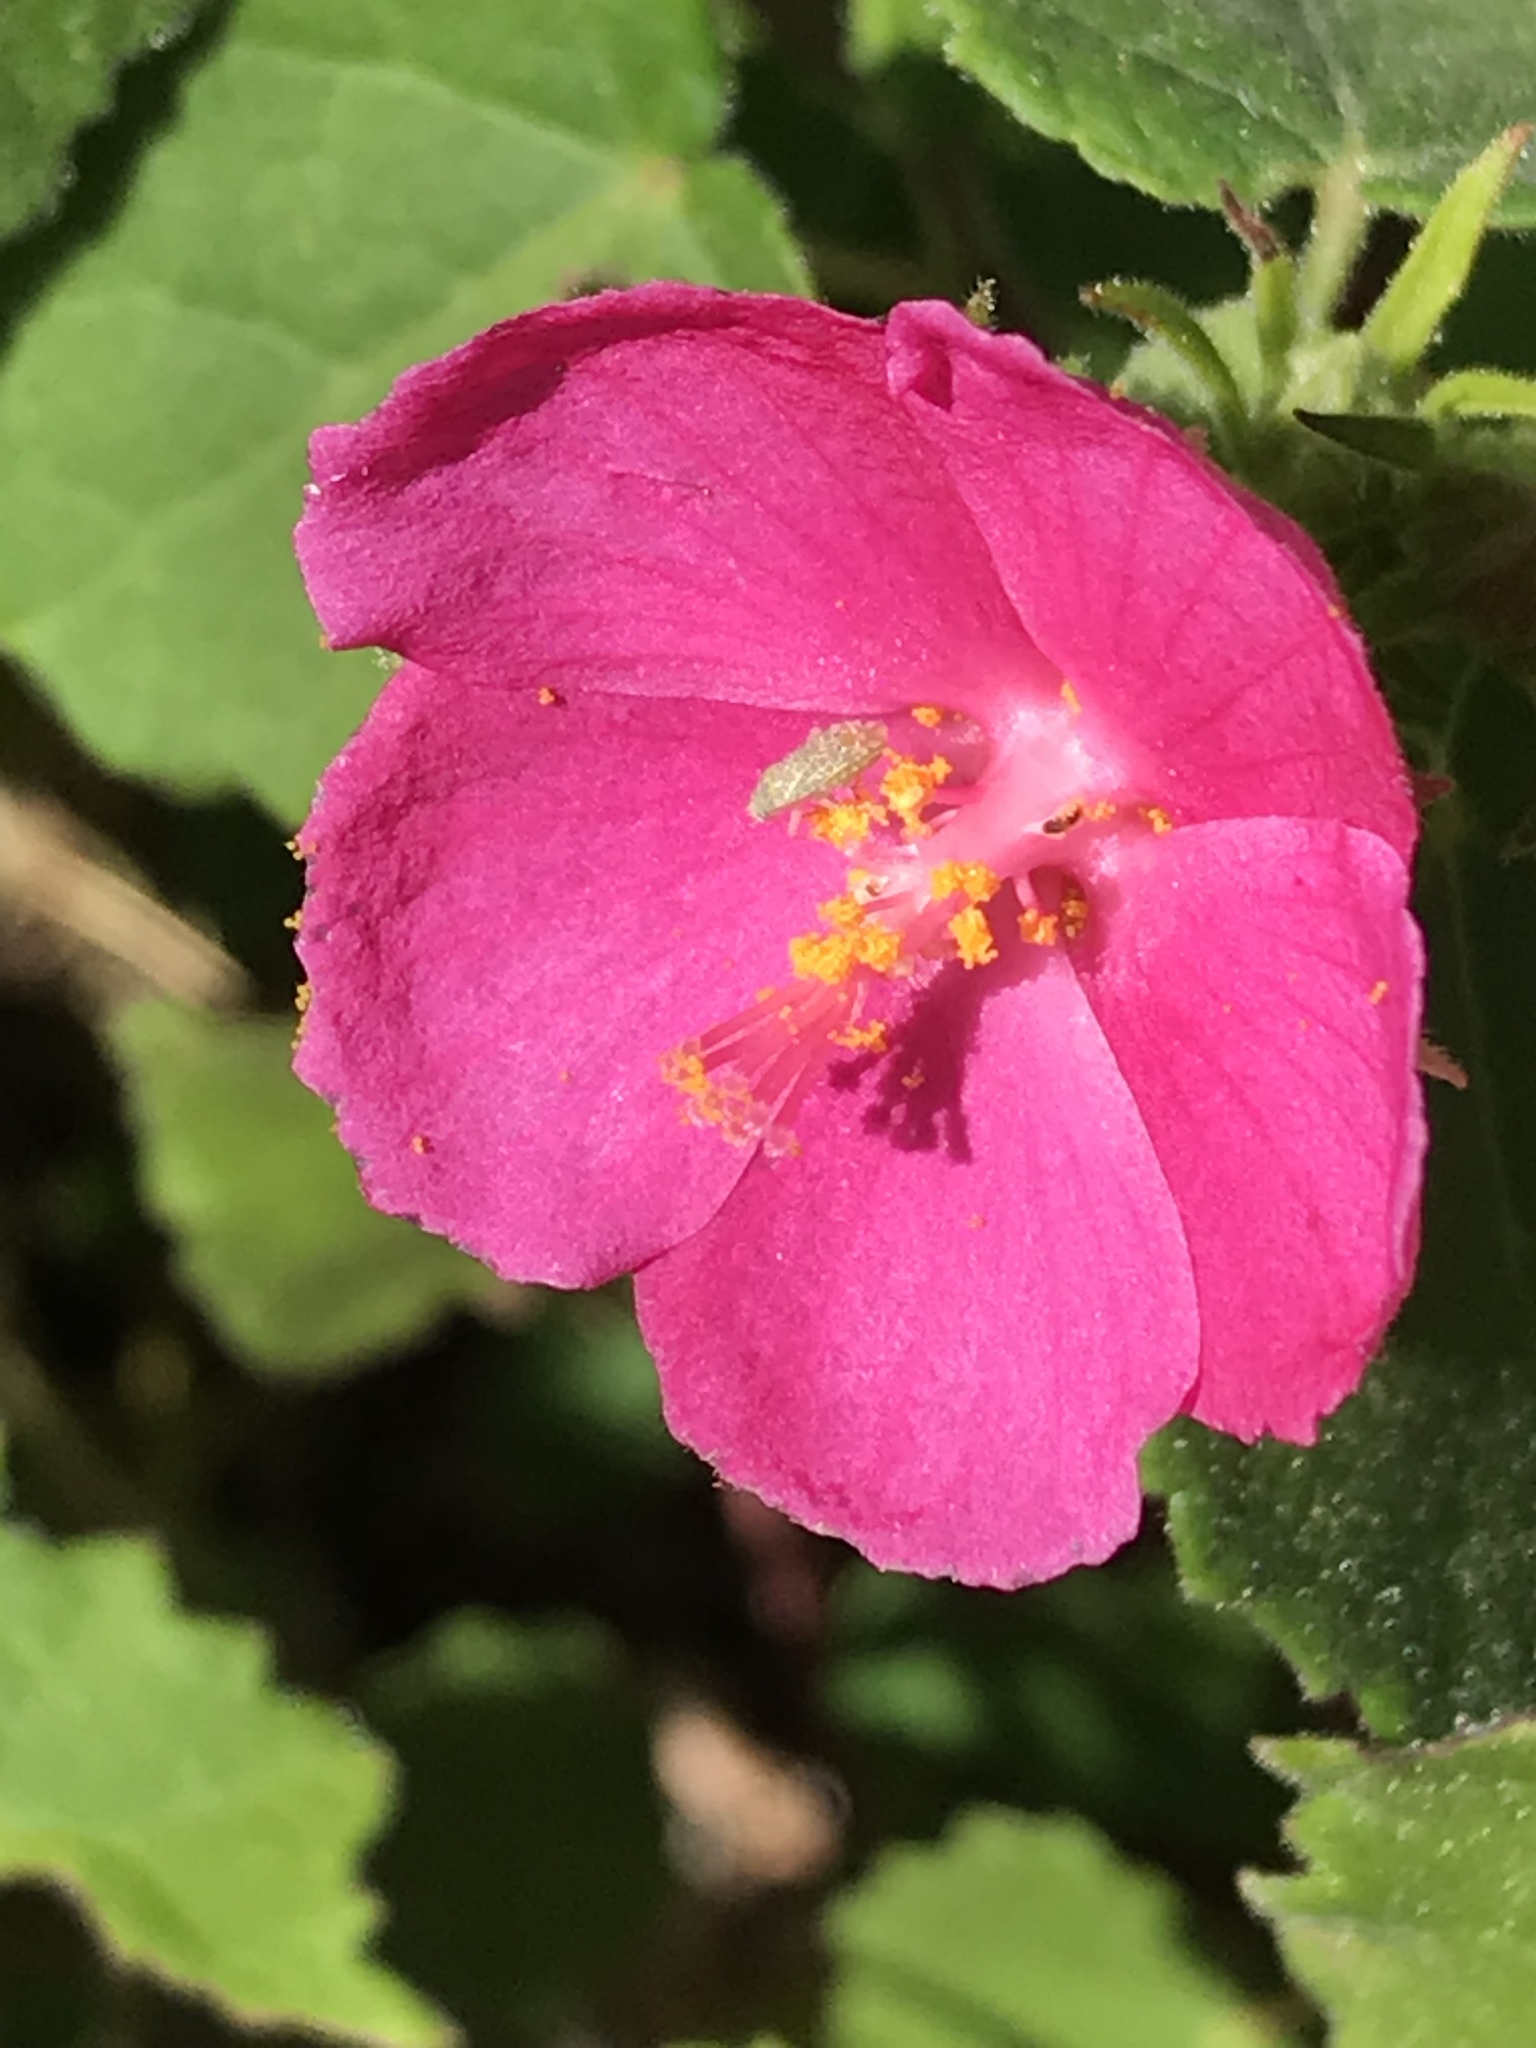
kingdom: Plantae
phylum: Tracheophyta
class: Magnoliopsida
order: Malvales
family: Malvaceae
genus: Pavonia
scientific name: Pavonia lasiopetala
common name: Texas swamp-mallow
